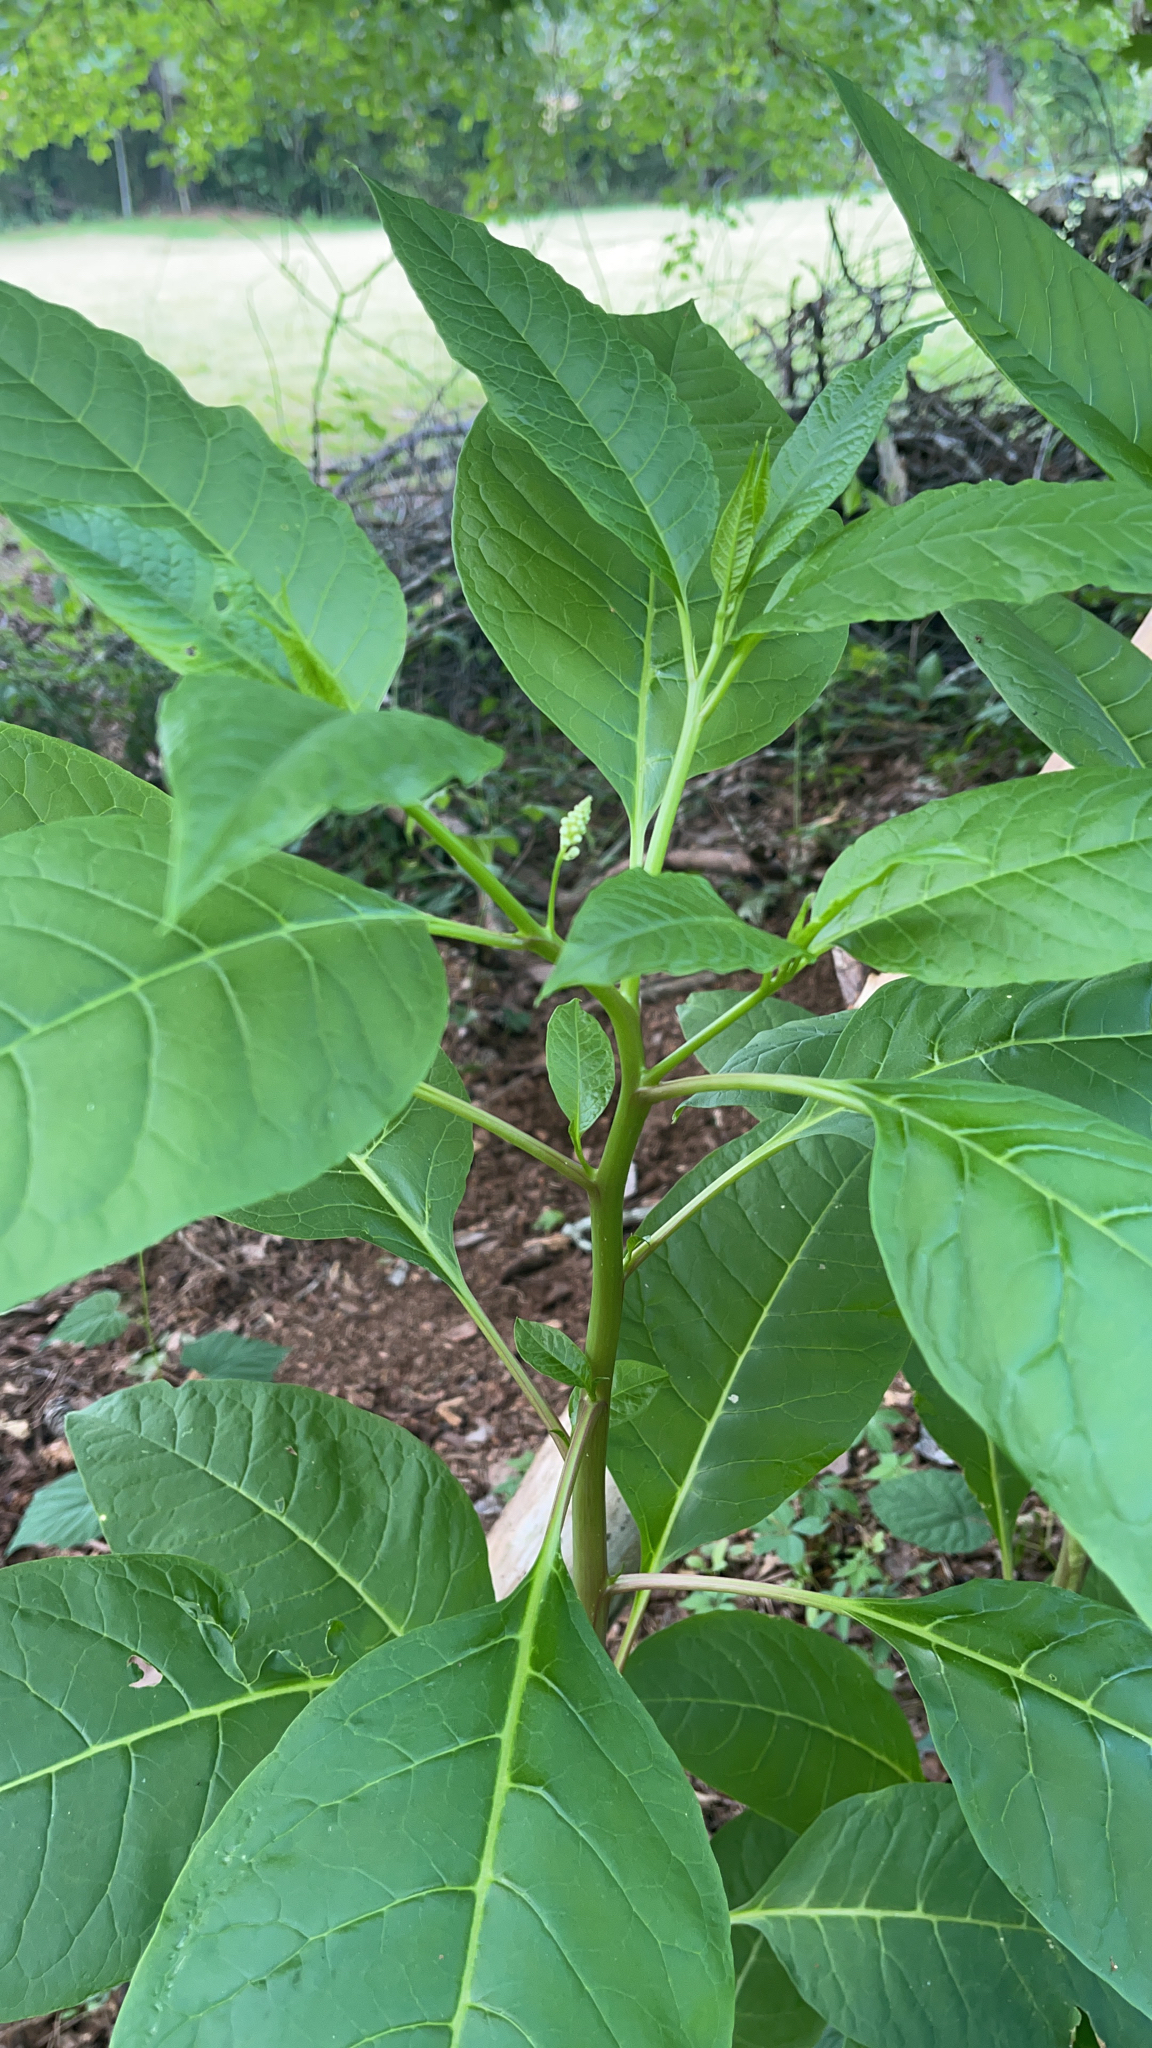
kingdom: Plantae
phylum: Tracheophyta
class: Magnoliopsida
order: Caryophyllales
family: Phytolaccaceae
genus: Phytolacca
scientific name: Phytolacca americana
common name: American pokeweed
